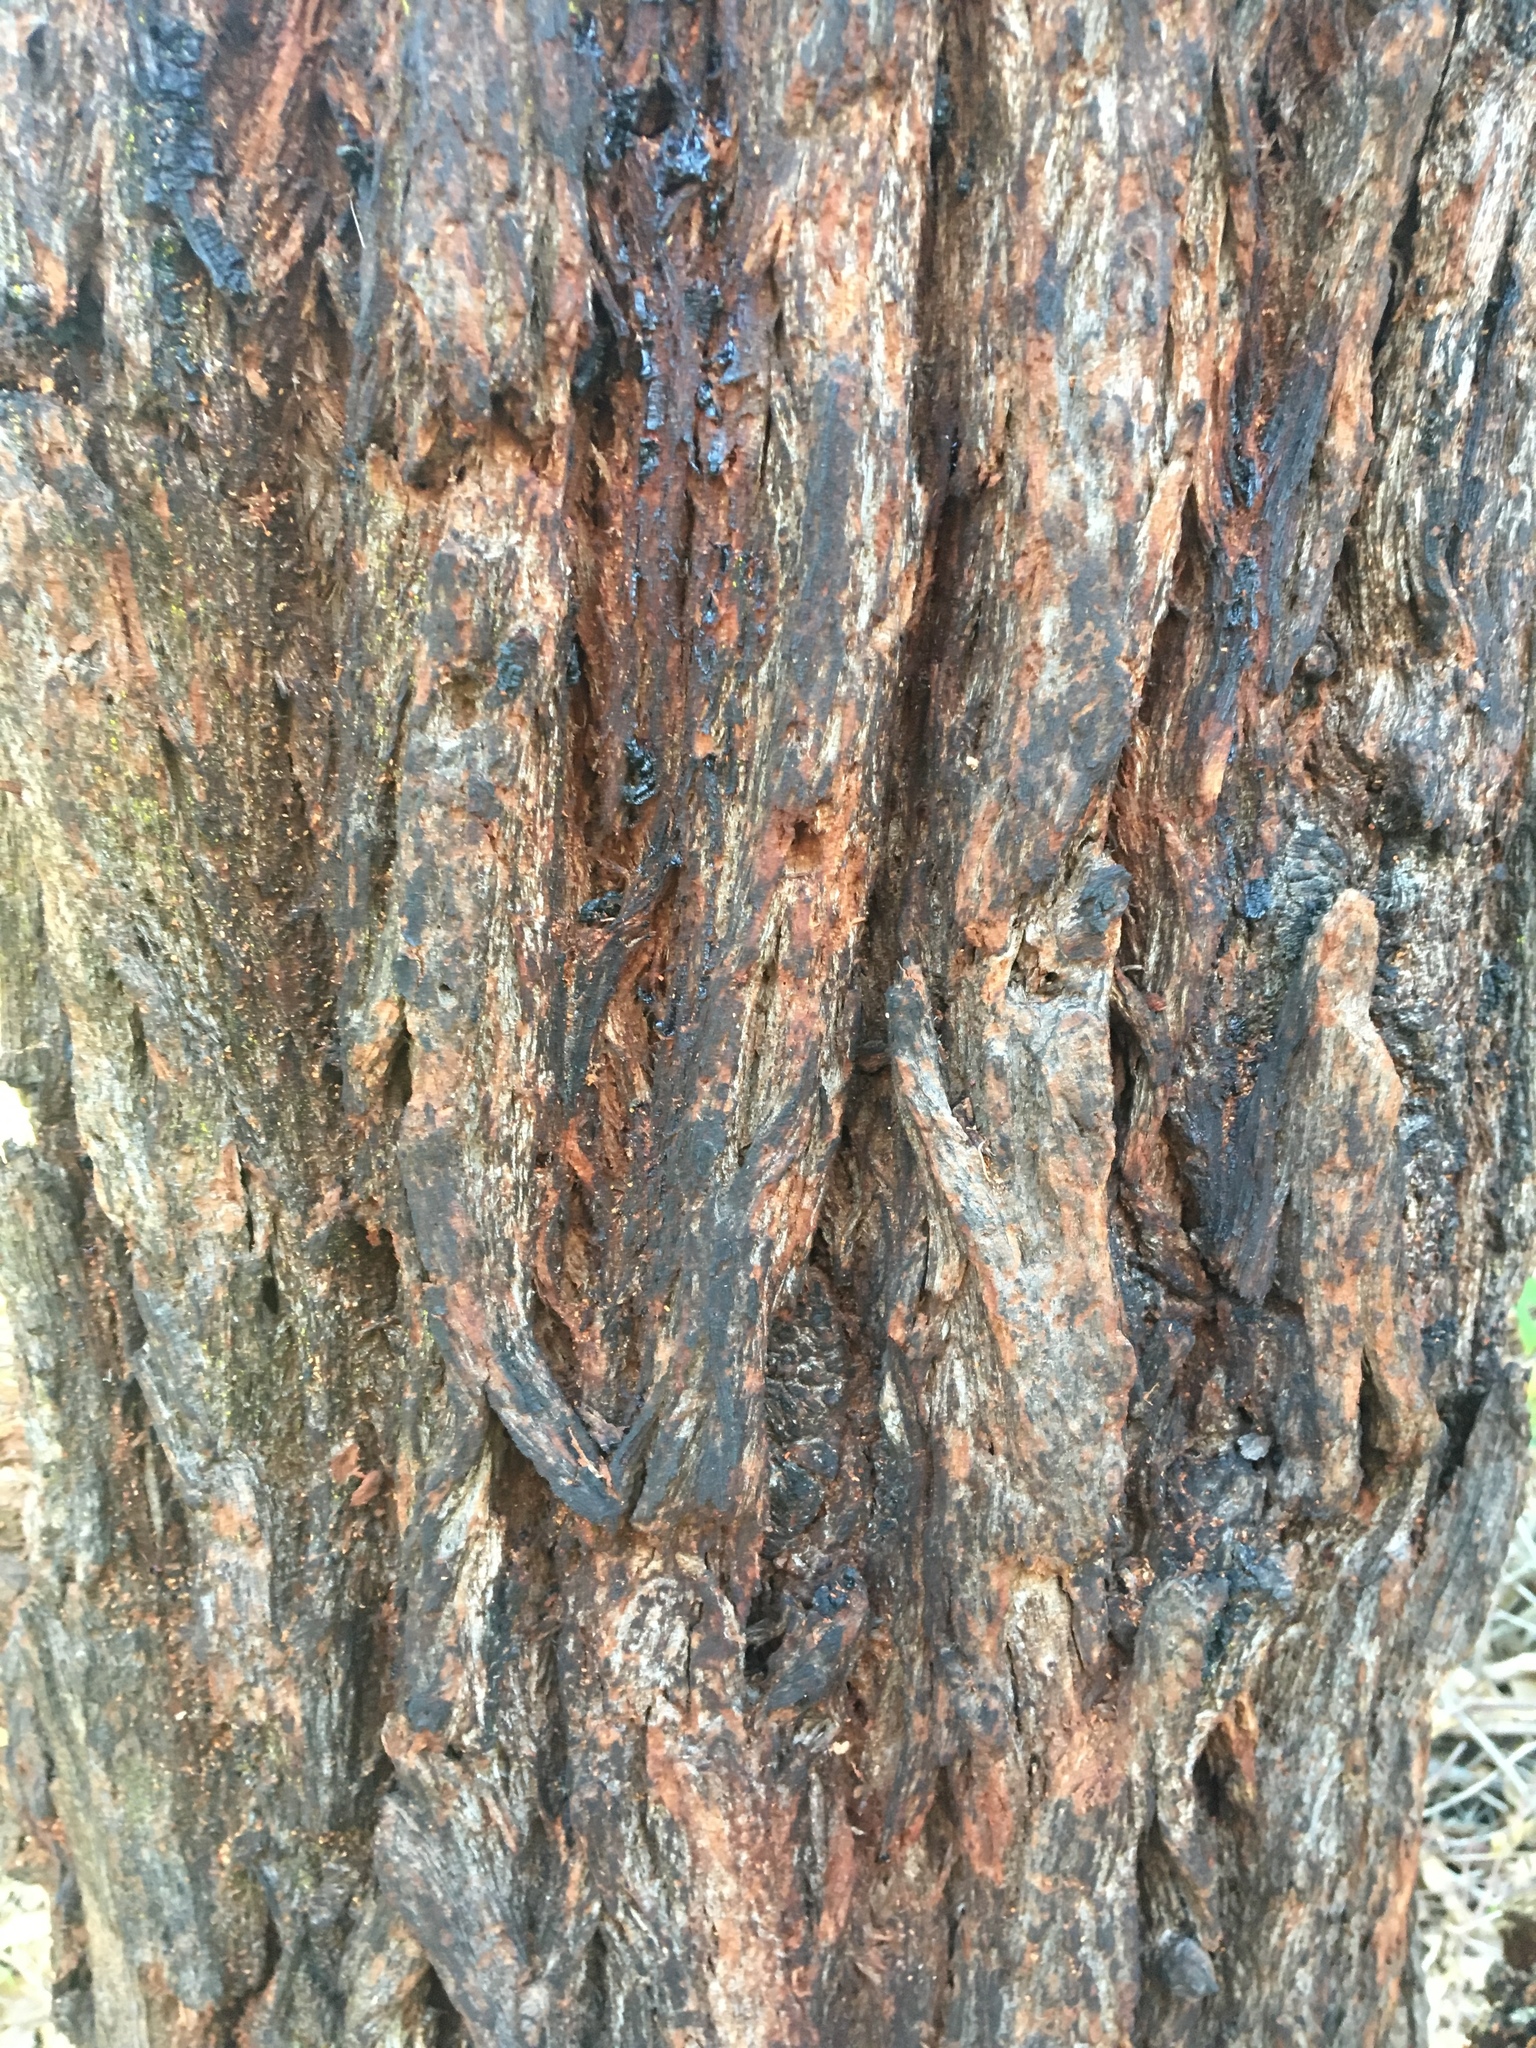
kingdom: Plantae
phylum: Tracheophyta
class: Magnoliopsida
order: Myrtales
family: Myrtaceae
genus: Eucalyptus
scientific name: Eucalyptus robusta
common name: Swampmahogany
